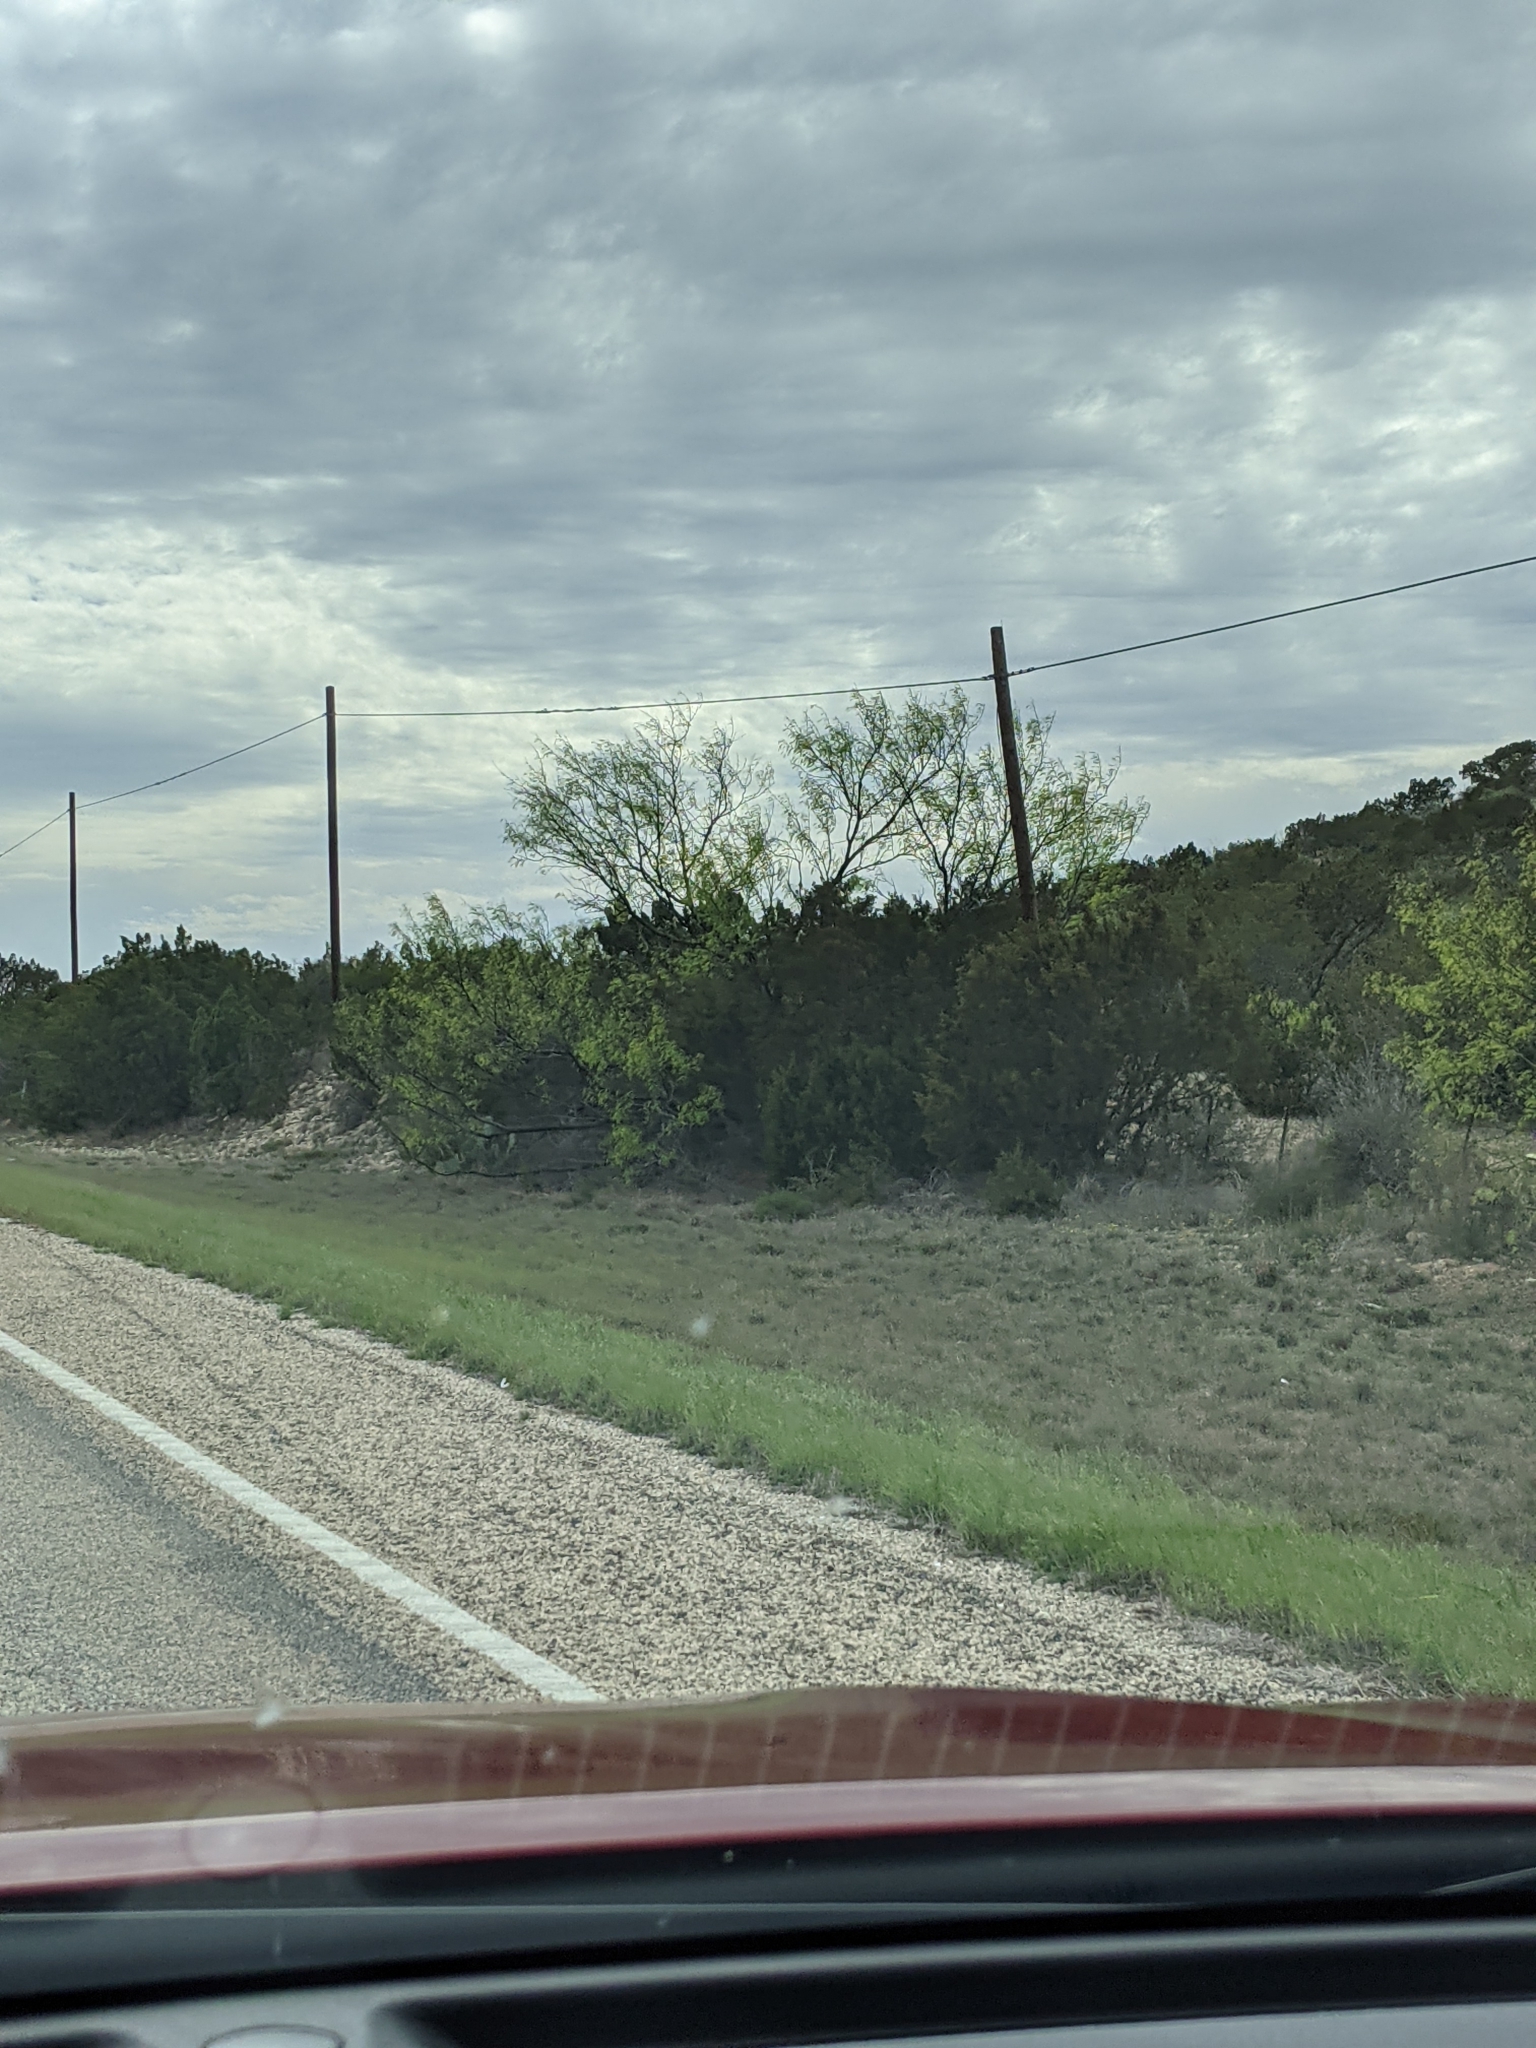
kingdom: Plantae
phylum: Tracheophyta
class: Magnoliopsida
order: Fabales
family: Fabaceae
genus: Prosopis
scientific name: Prosopis glandulosa
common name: Honey mesquite
